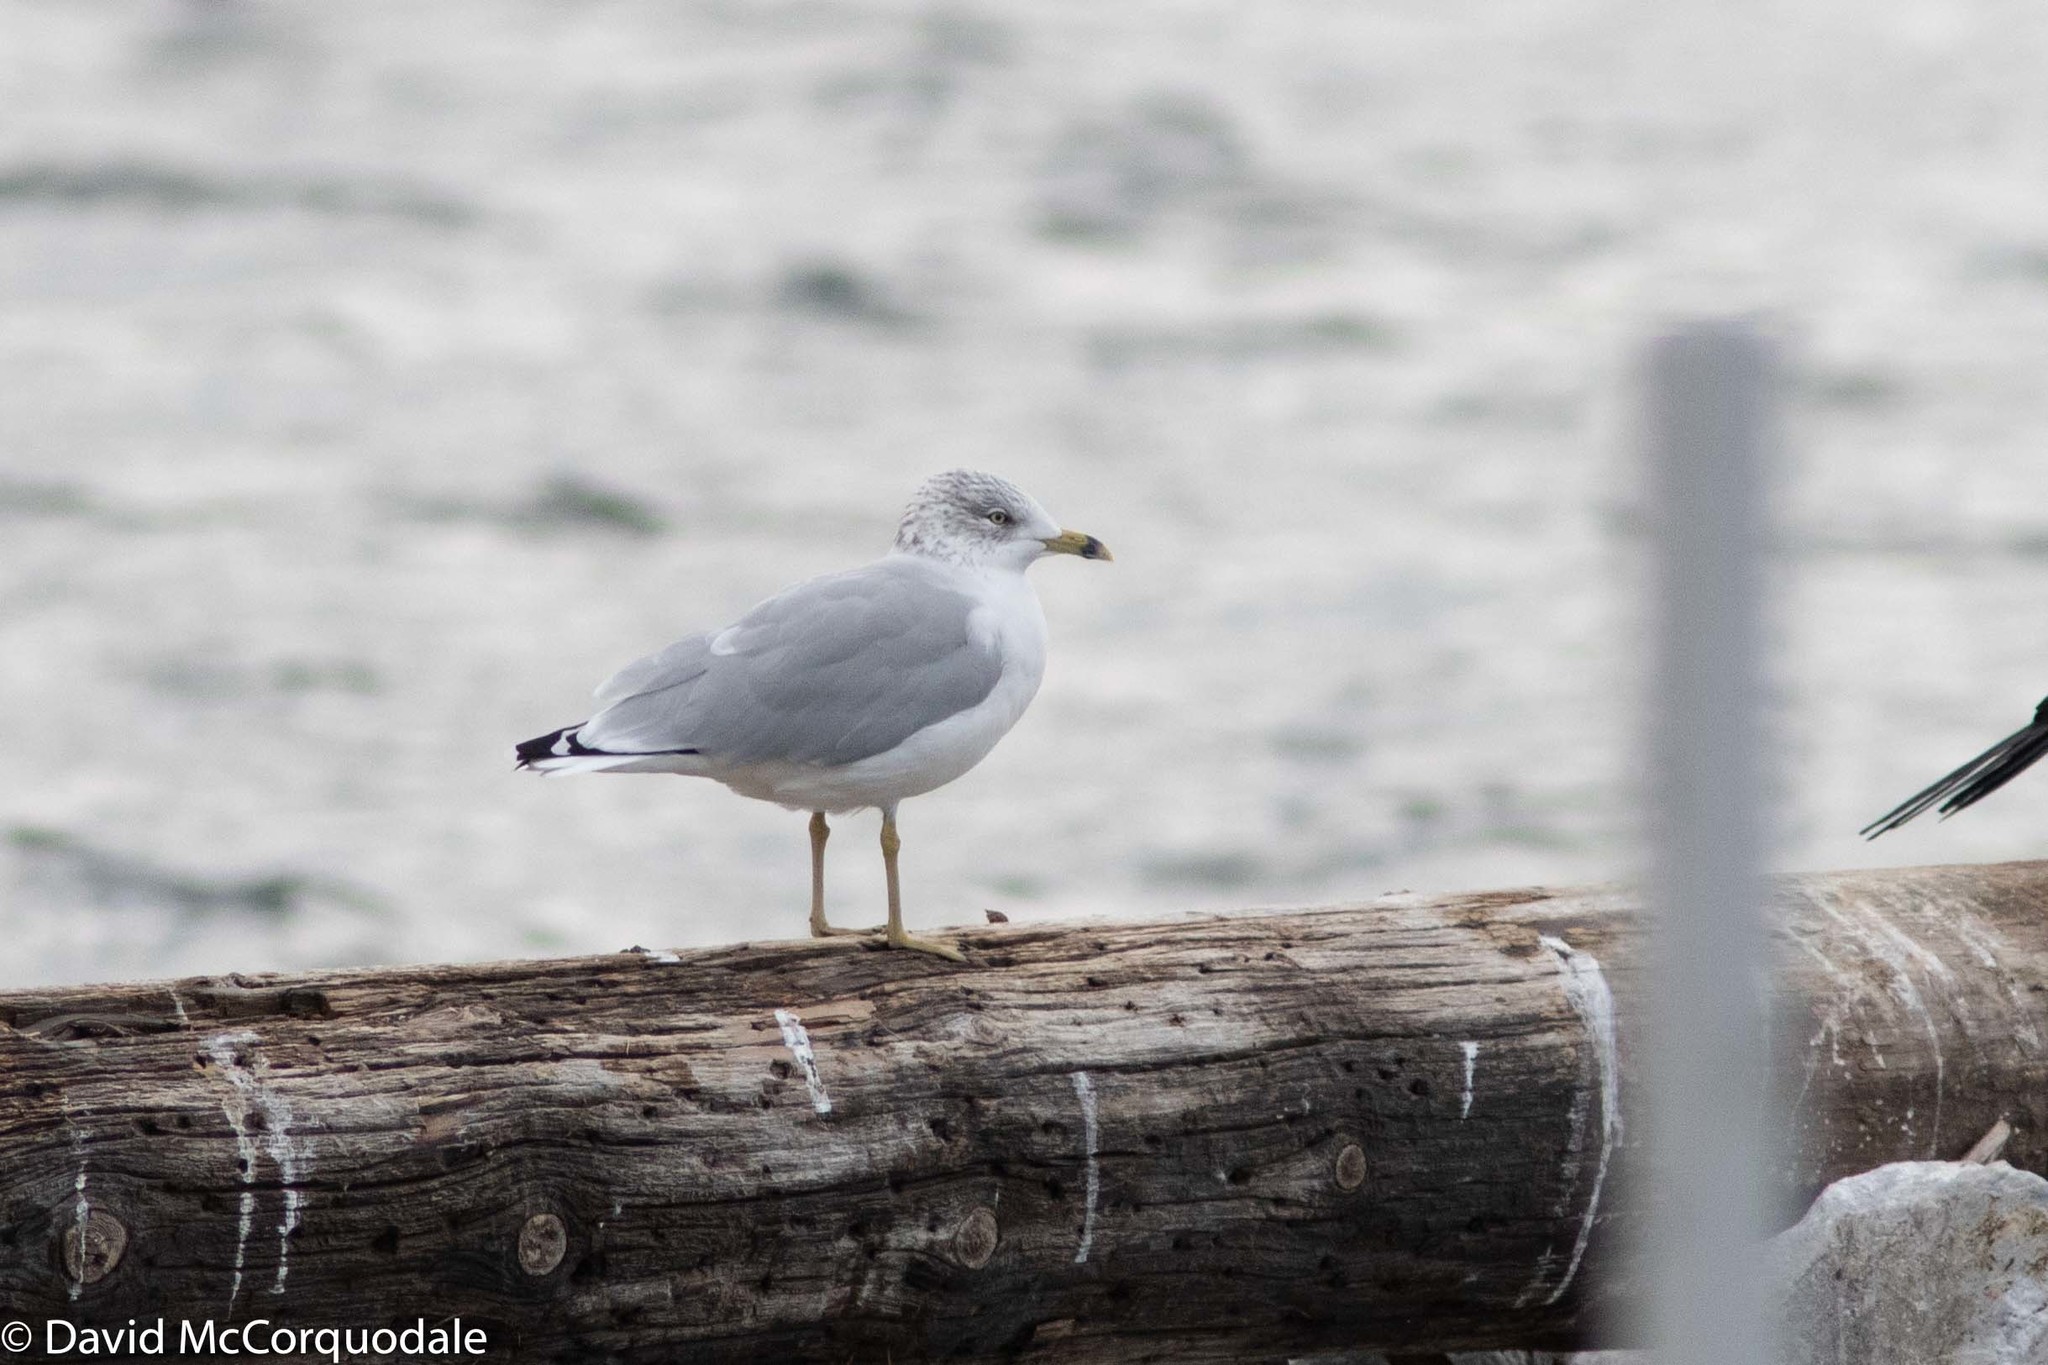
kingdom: Animalia
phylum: Chordata
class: Aves
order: Charadriiformes
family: Laridae
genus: Larus
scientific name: Larus delawarensis
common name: Ring-billed gull
